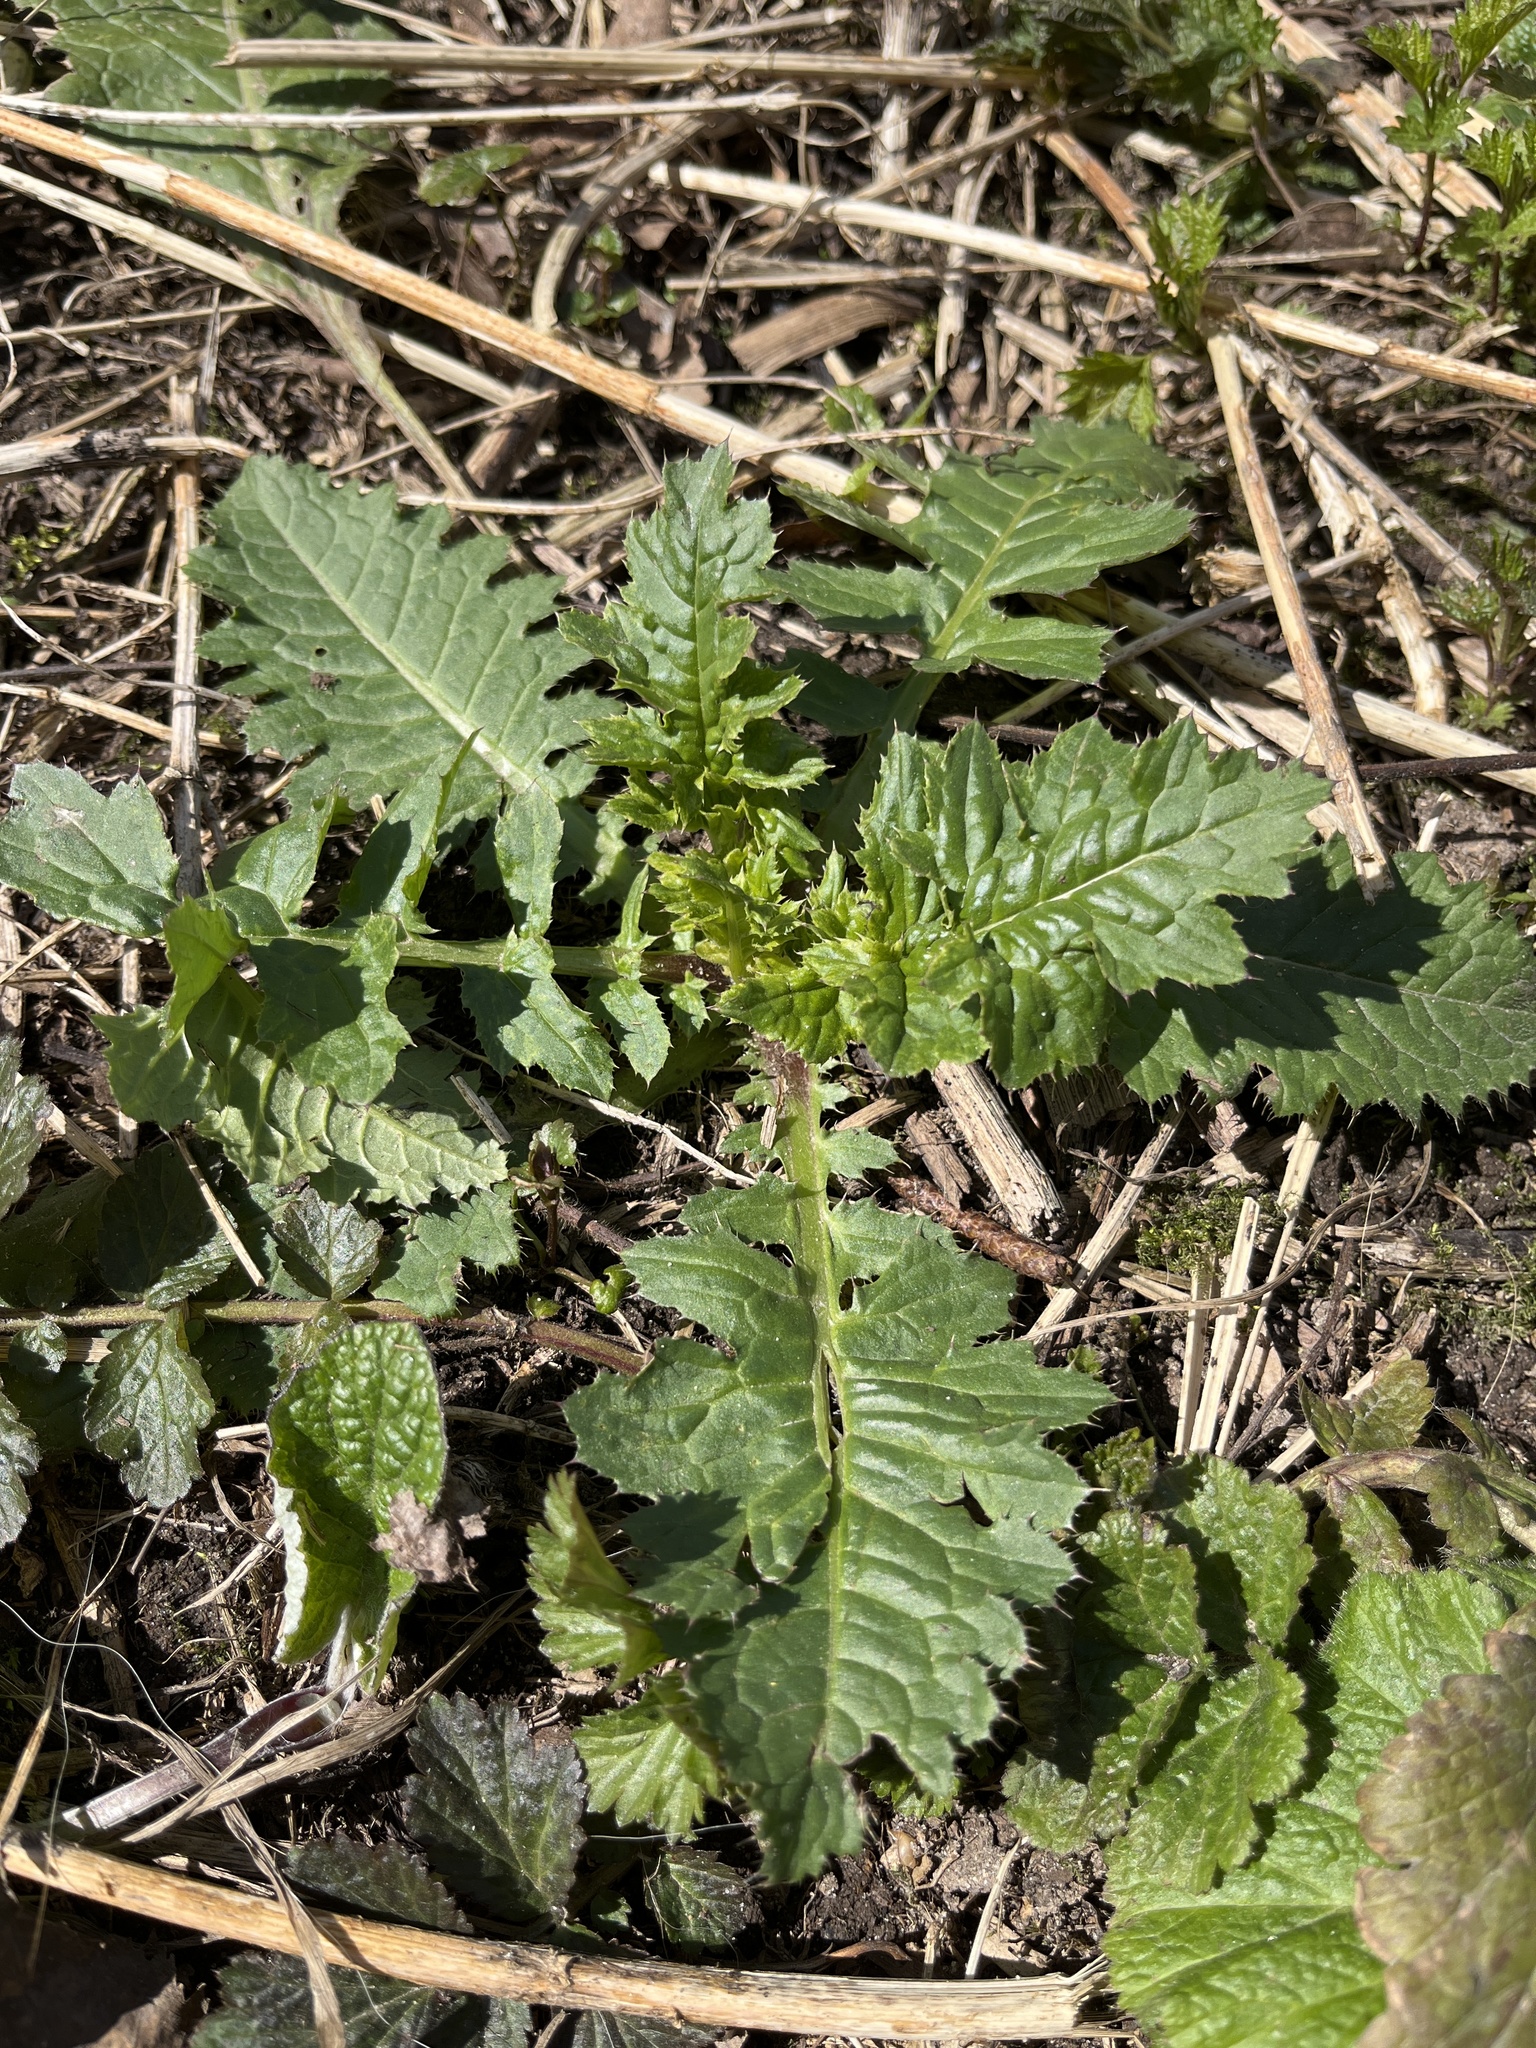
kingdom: Plantae
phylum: Tracheophyta
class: Magnoliopsida
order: Asterales
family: Asteraceae
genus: Cirsium
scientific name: Cirsium oleraceum
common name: Cabbage thistle
